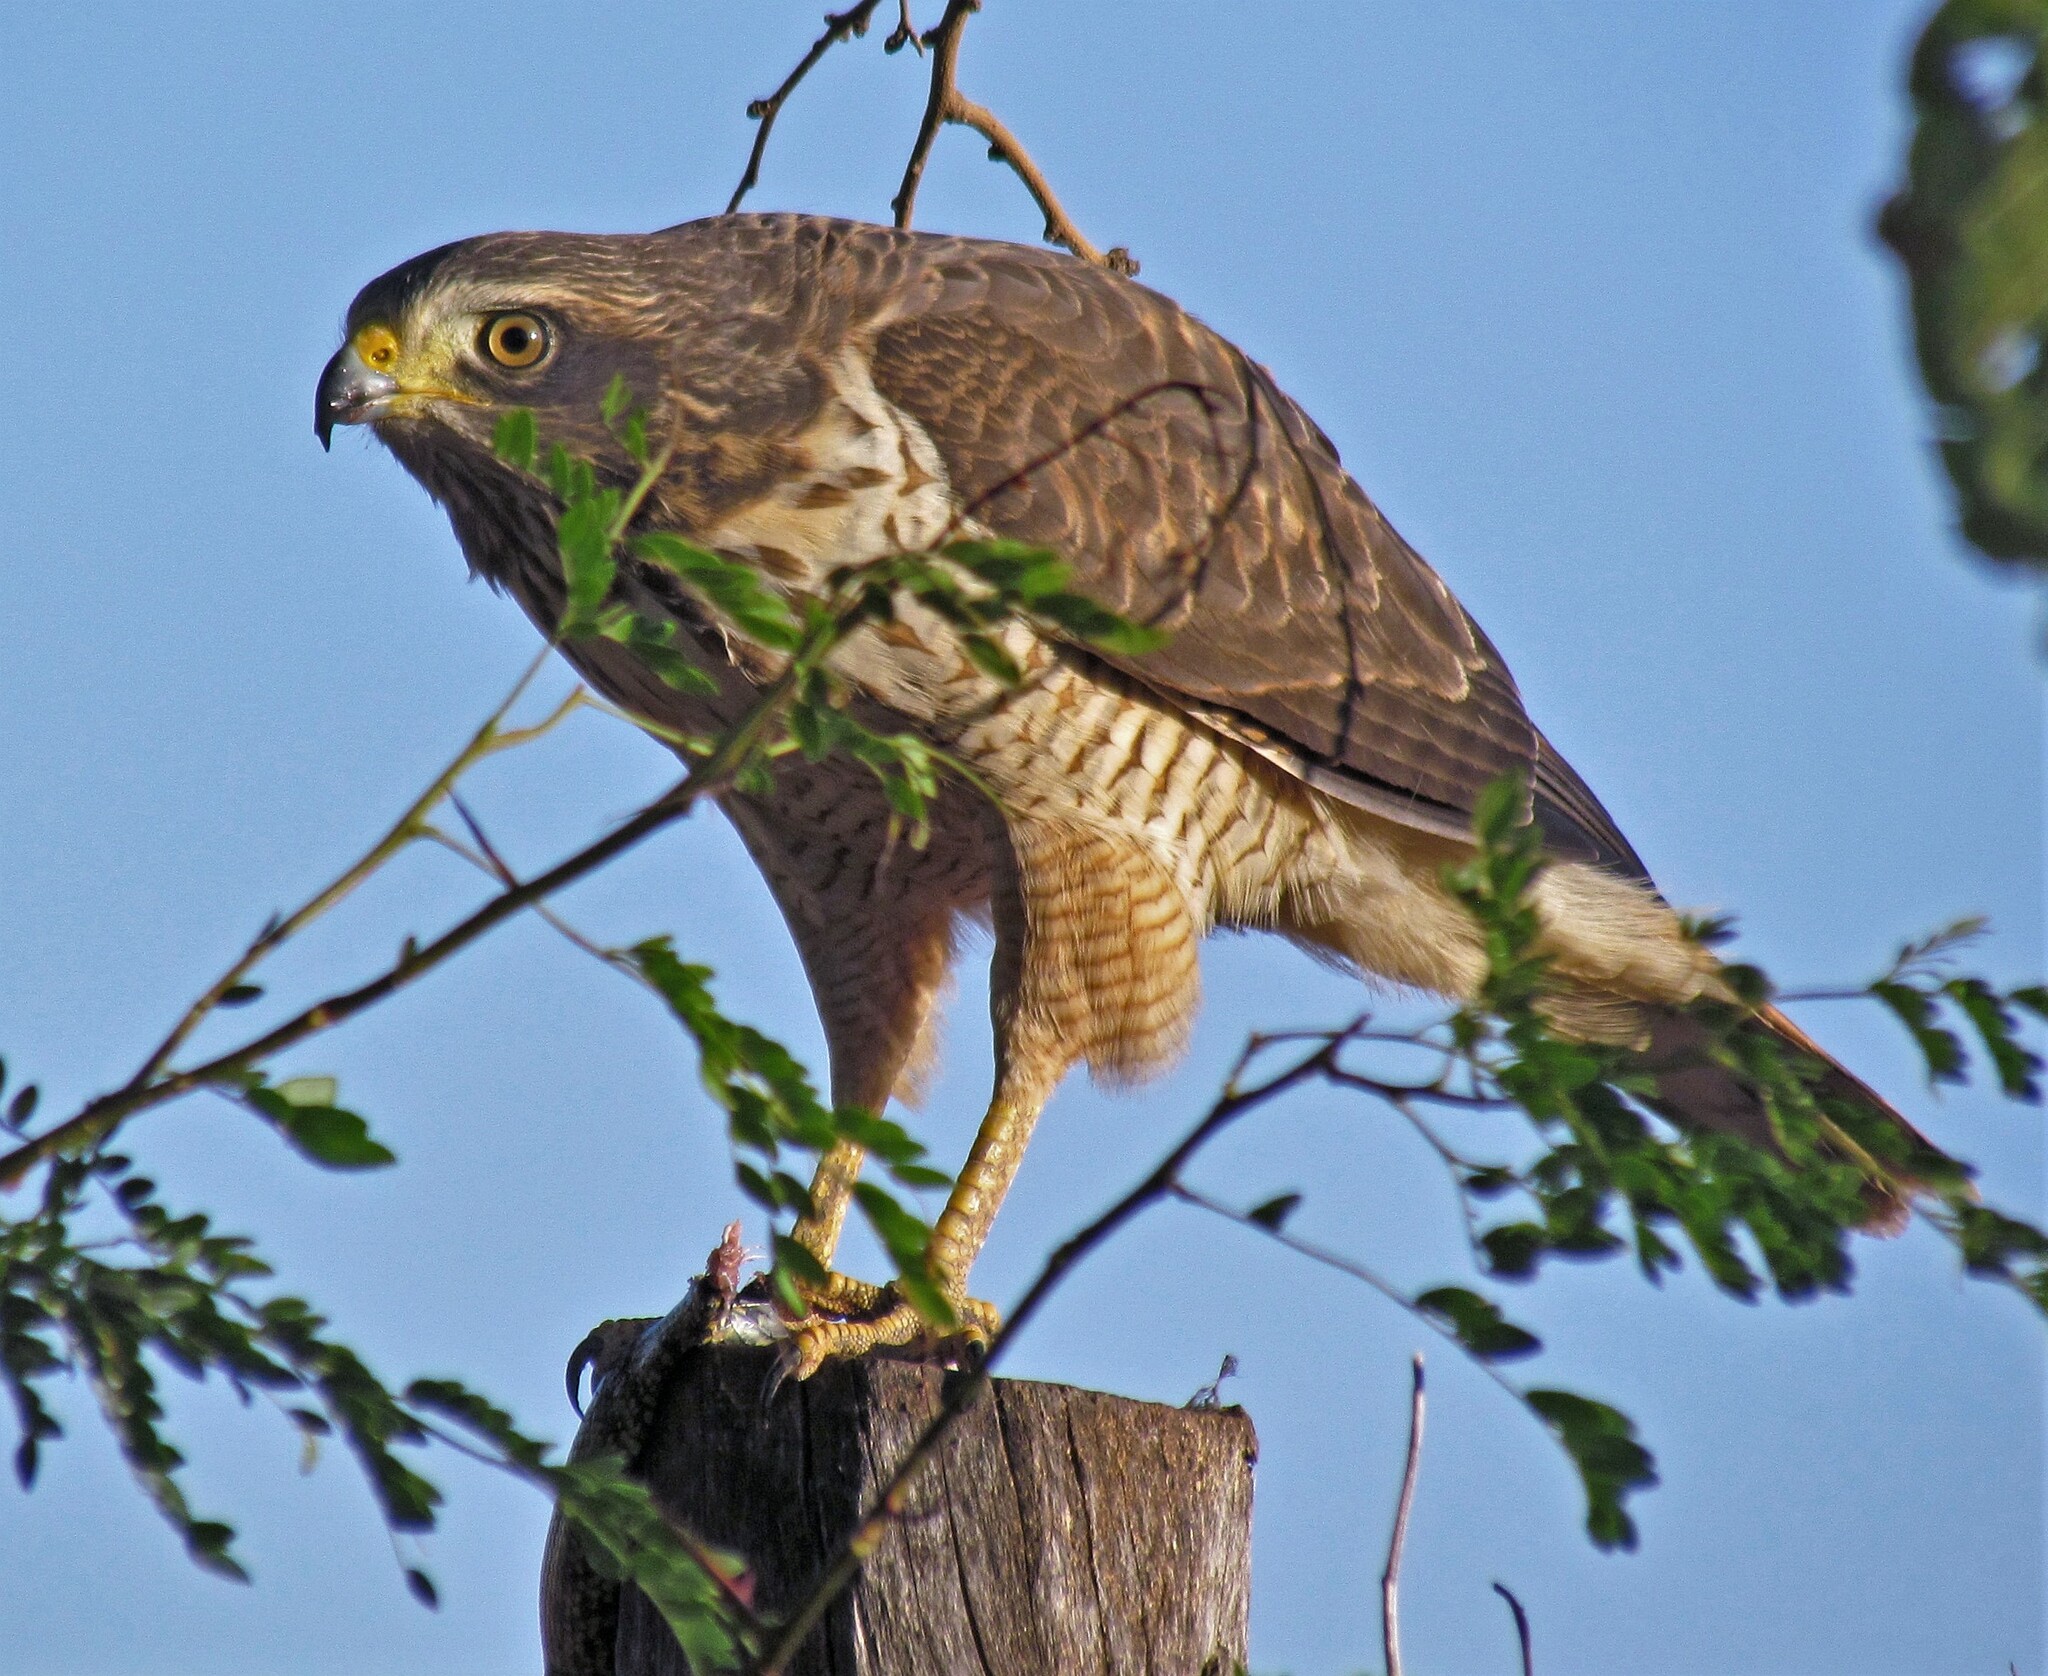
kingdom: Animalia
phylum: Chordata
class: Aves
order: Accipitriformes
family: Accipitridae
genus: Rupornis
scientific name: Rupornis magnirostris
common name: Roadside hawk
